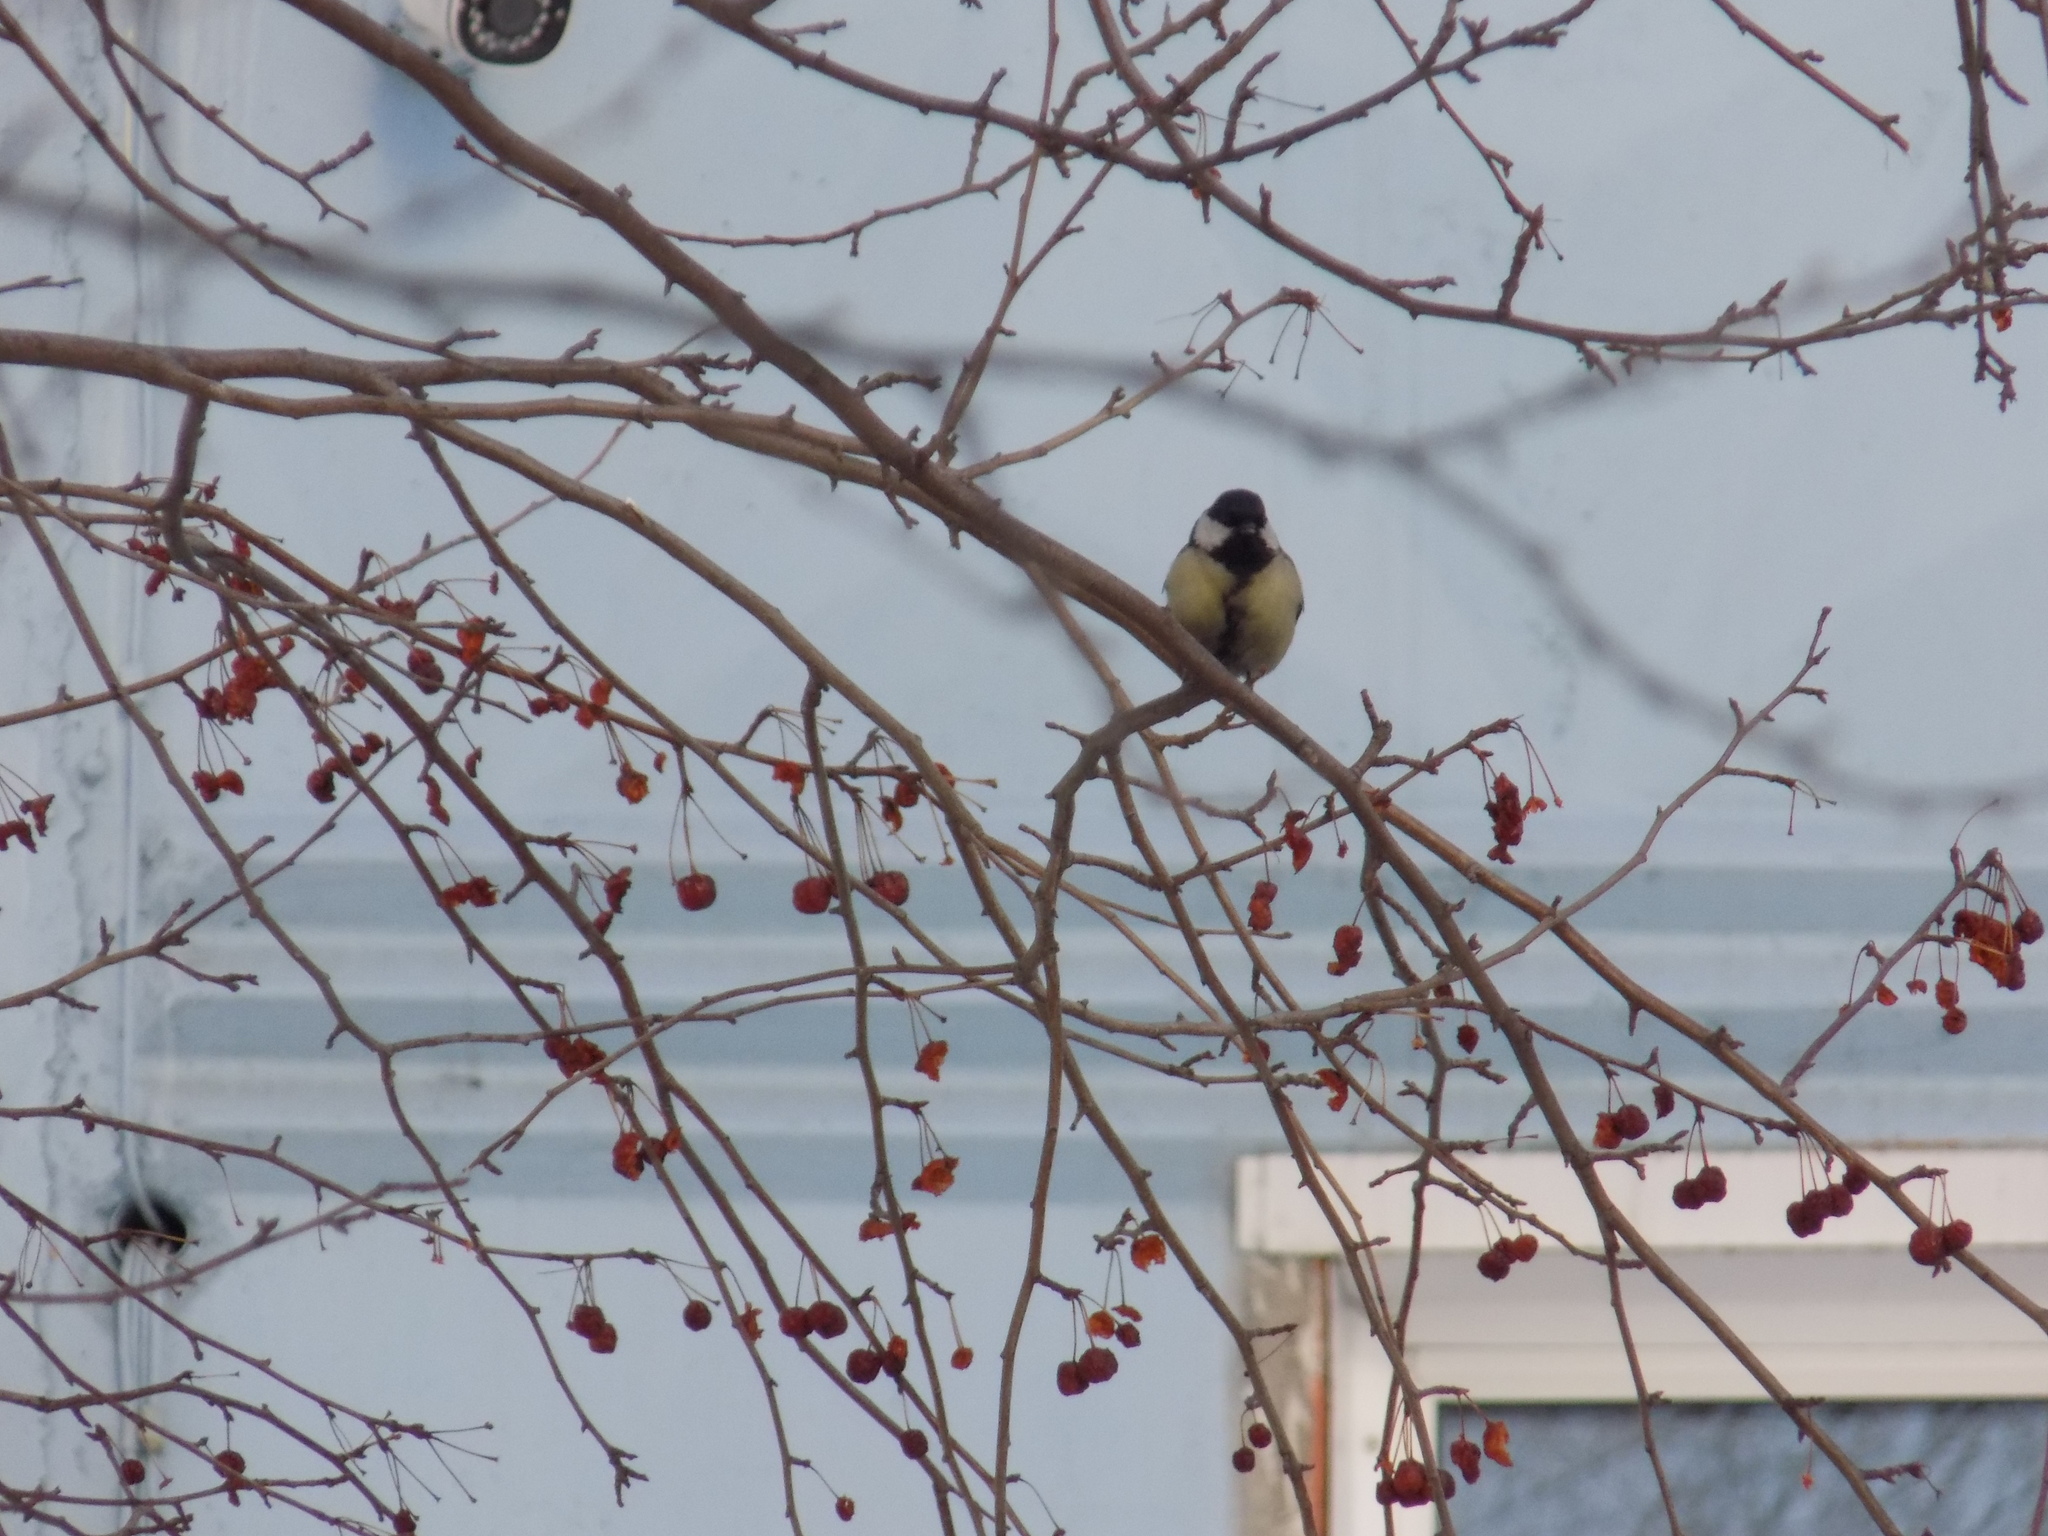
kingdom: Animalia
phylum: Chordata
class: Aves
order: Passeriformes
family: Paridae
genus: Parus
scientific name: Parus major
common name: Great tit
